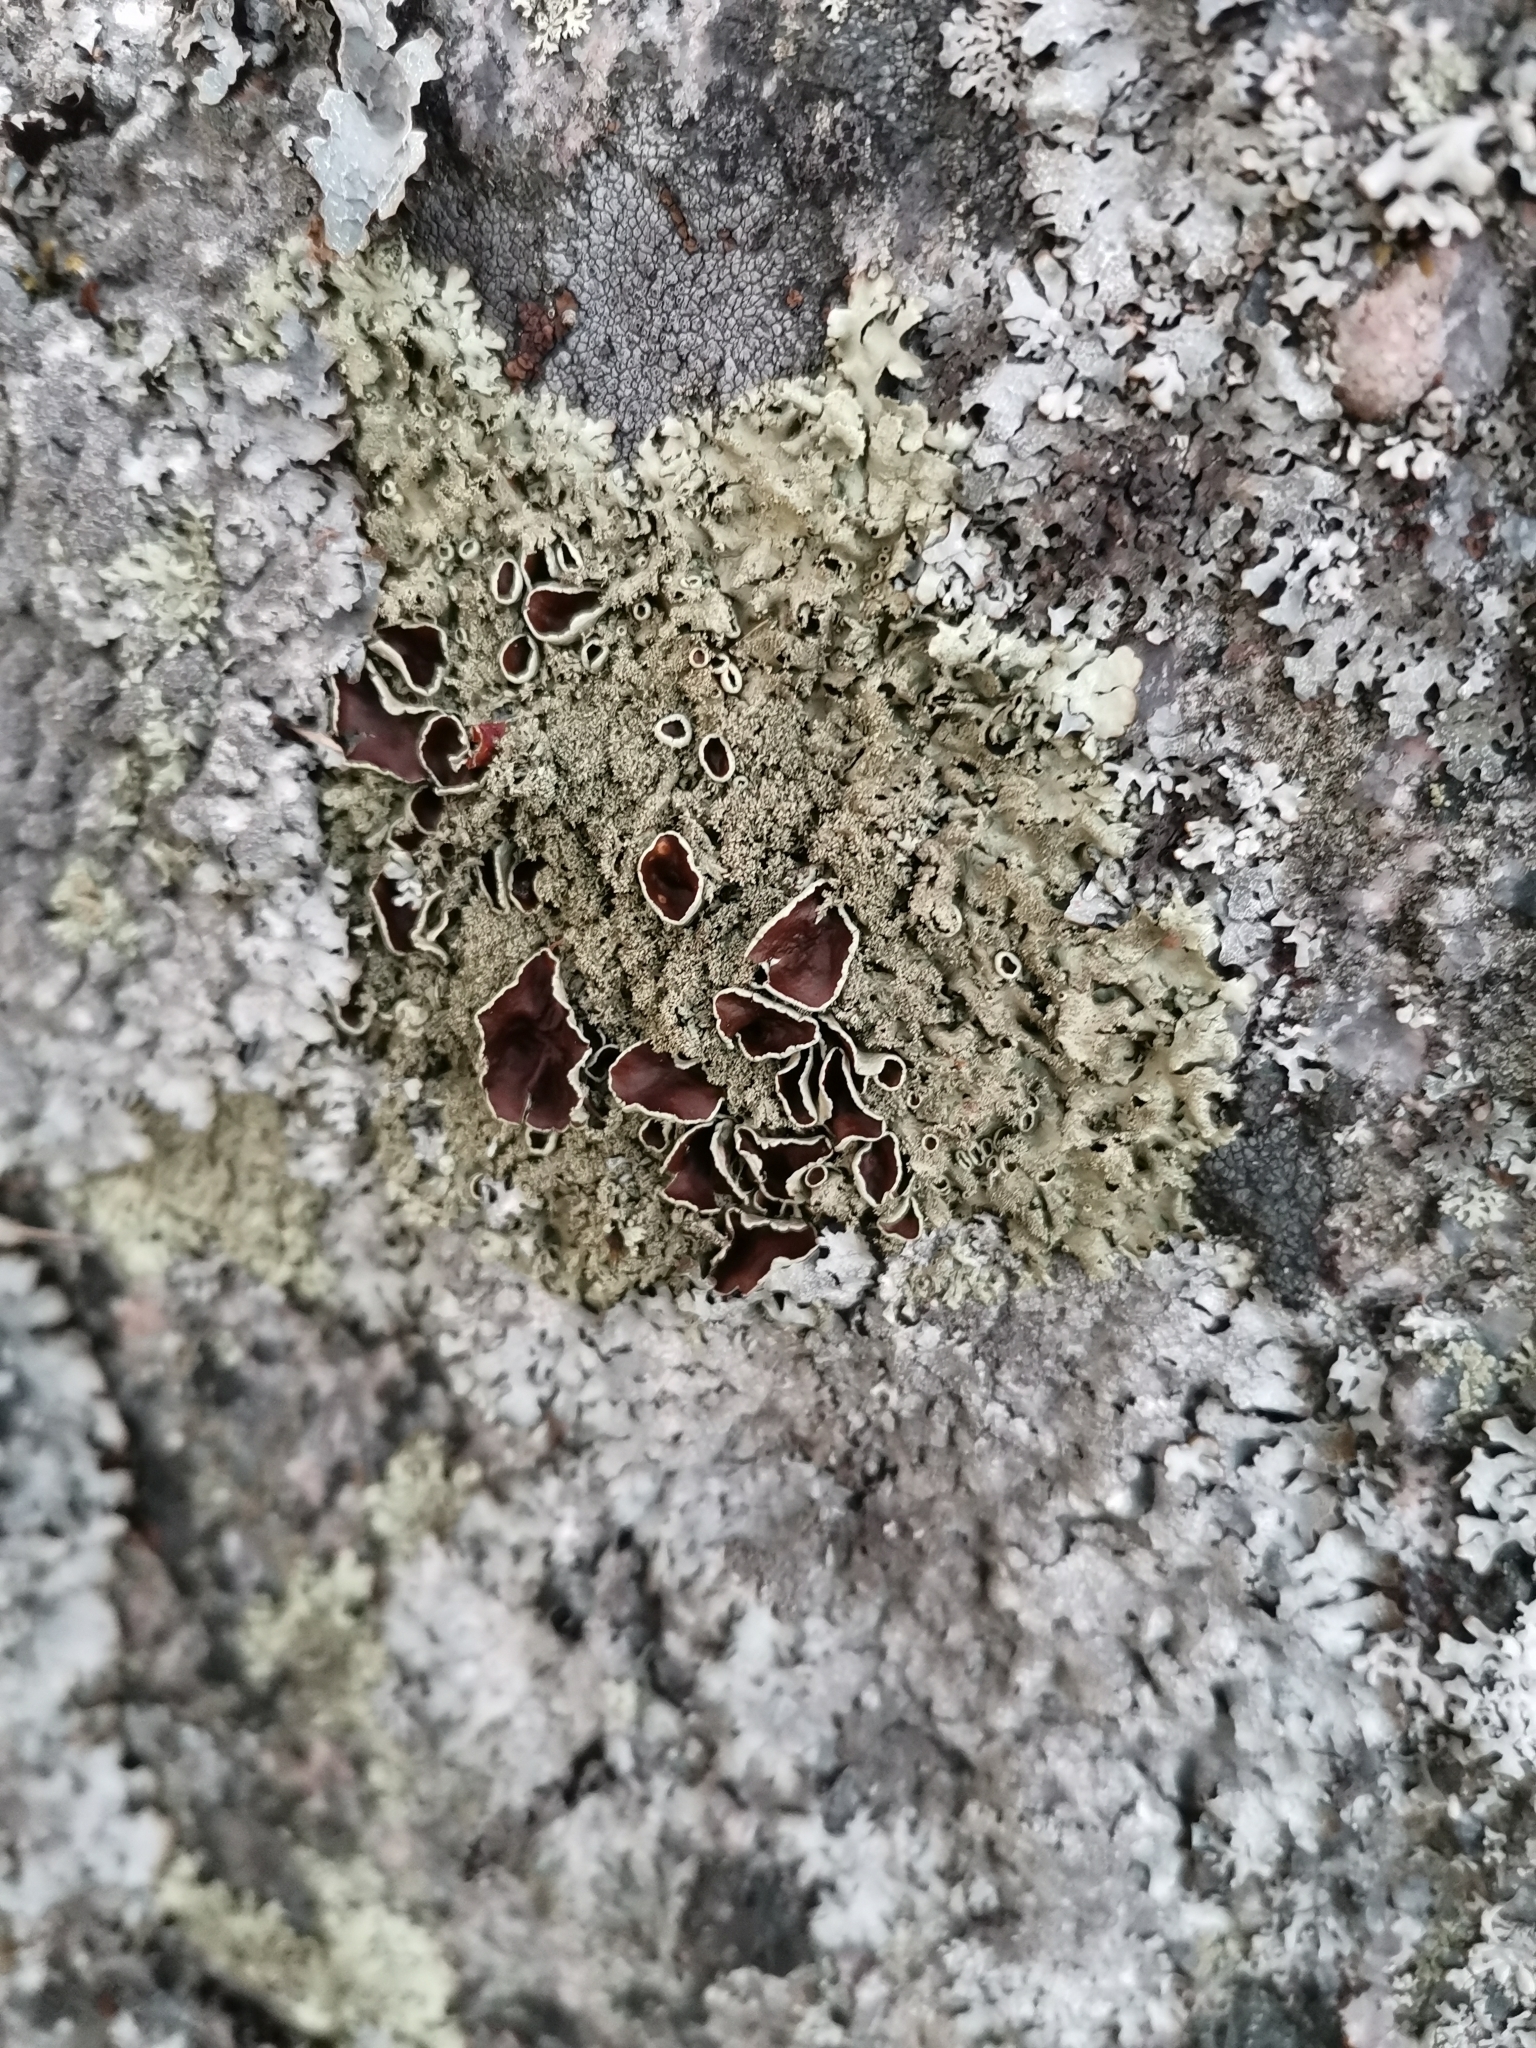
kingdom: Fungi
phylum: Ascomycota
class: Lecanoromycetes
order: Lecanorales
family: Parmeliaceae
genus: Xanthoparmelia
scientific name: Xanthoparmelia conspersa
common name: Peppered rock shield
